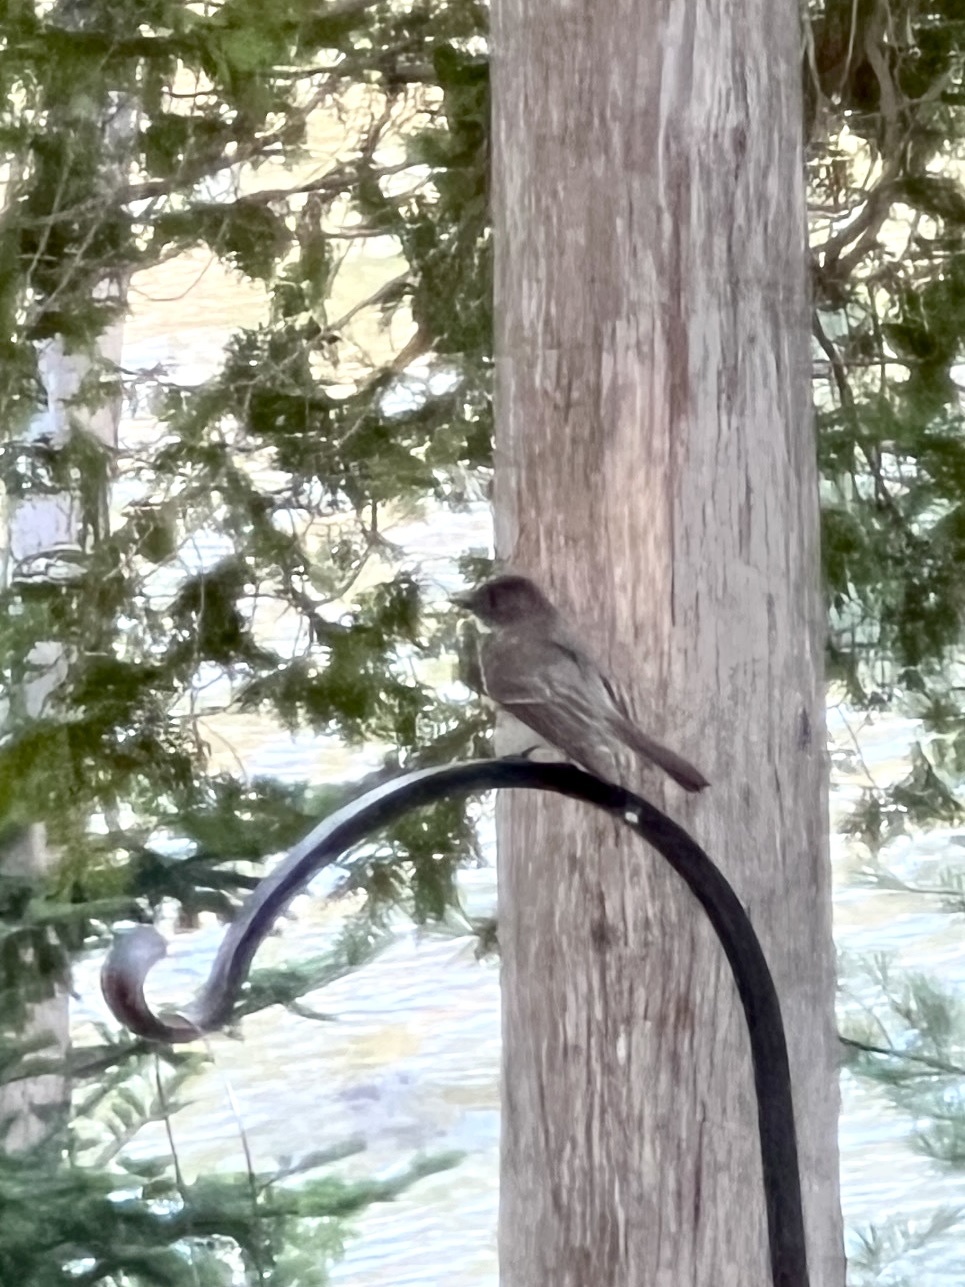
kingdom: Animalia
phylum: Chordata
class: Aves
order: Passeriformes
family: Tyrannidae
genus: Sayornis
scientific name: Sayornis phoebe
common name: Eastern phoebe
